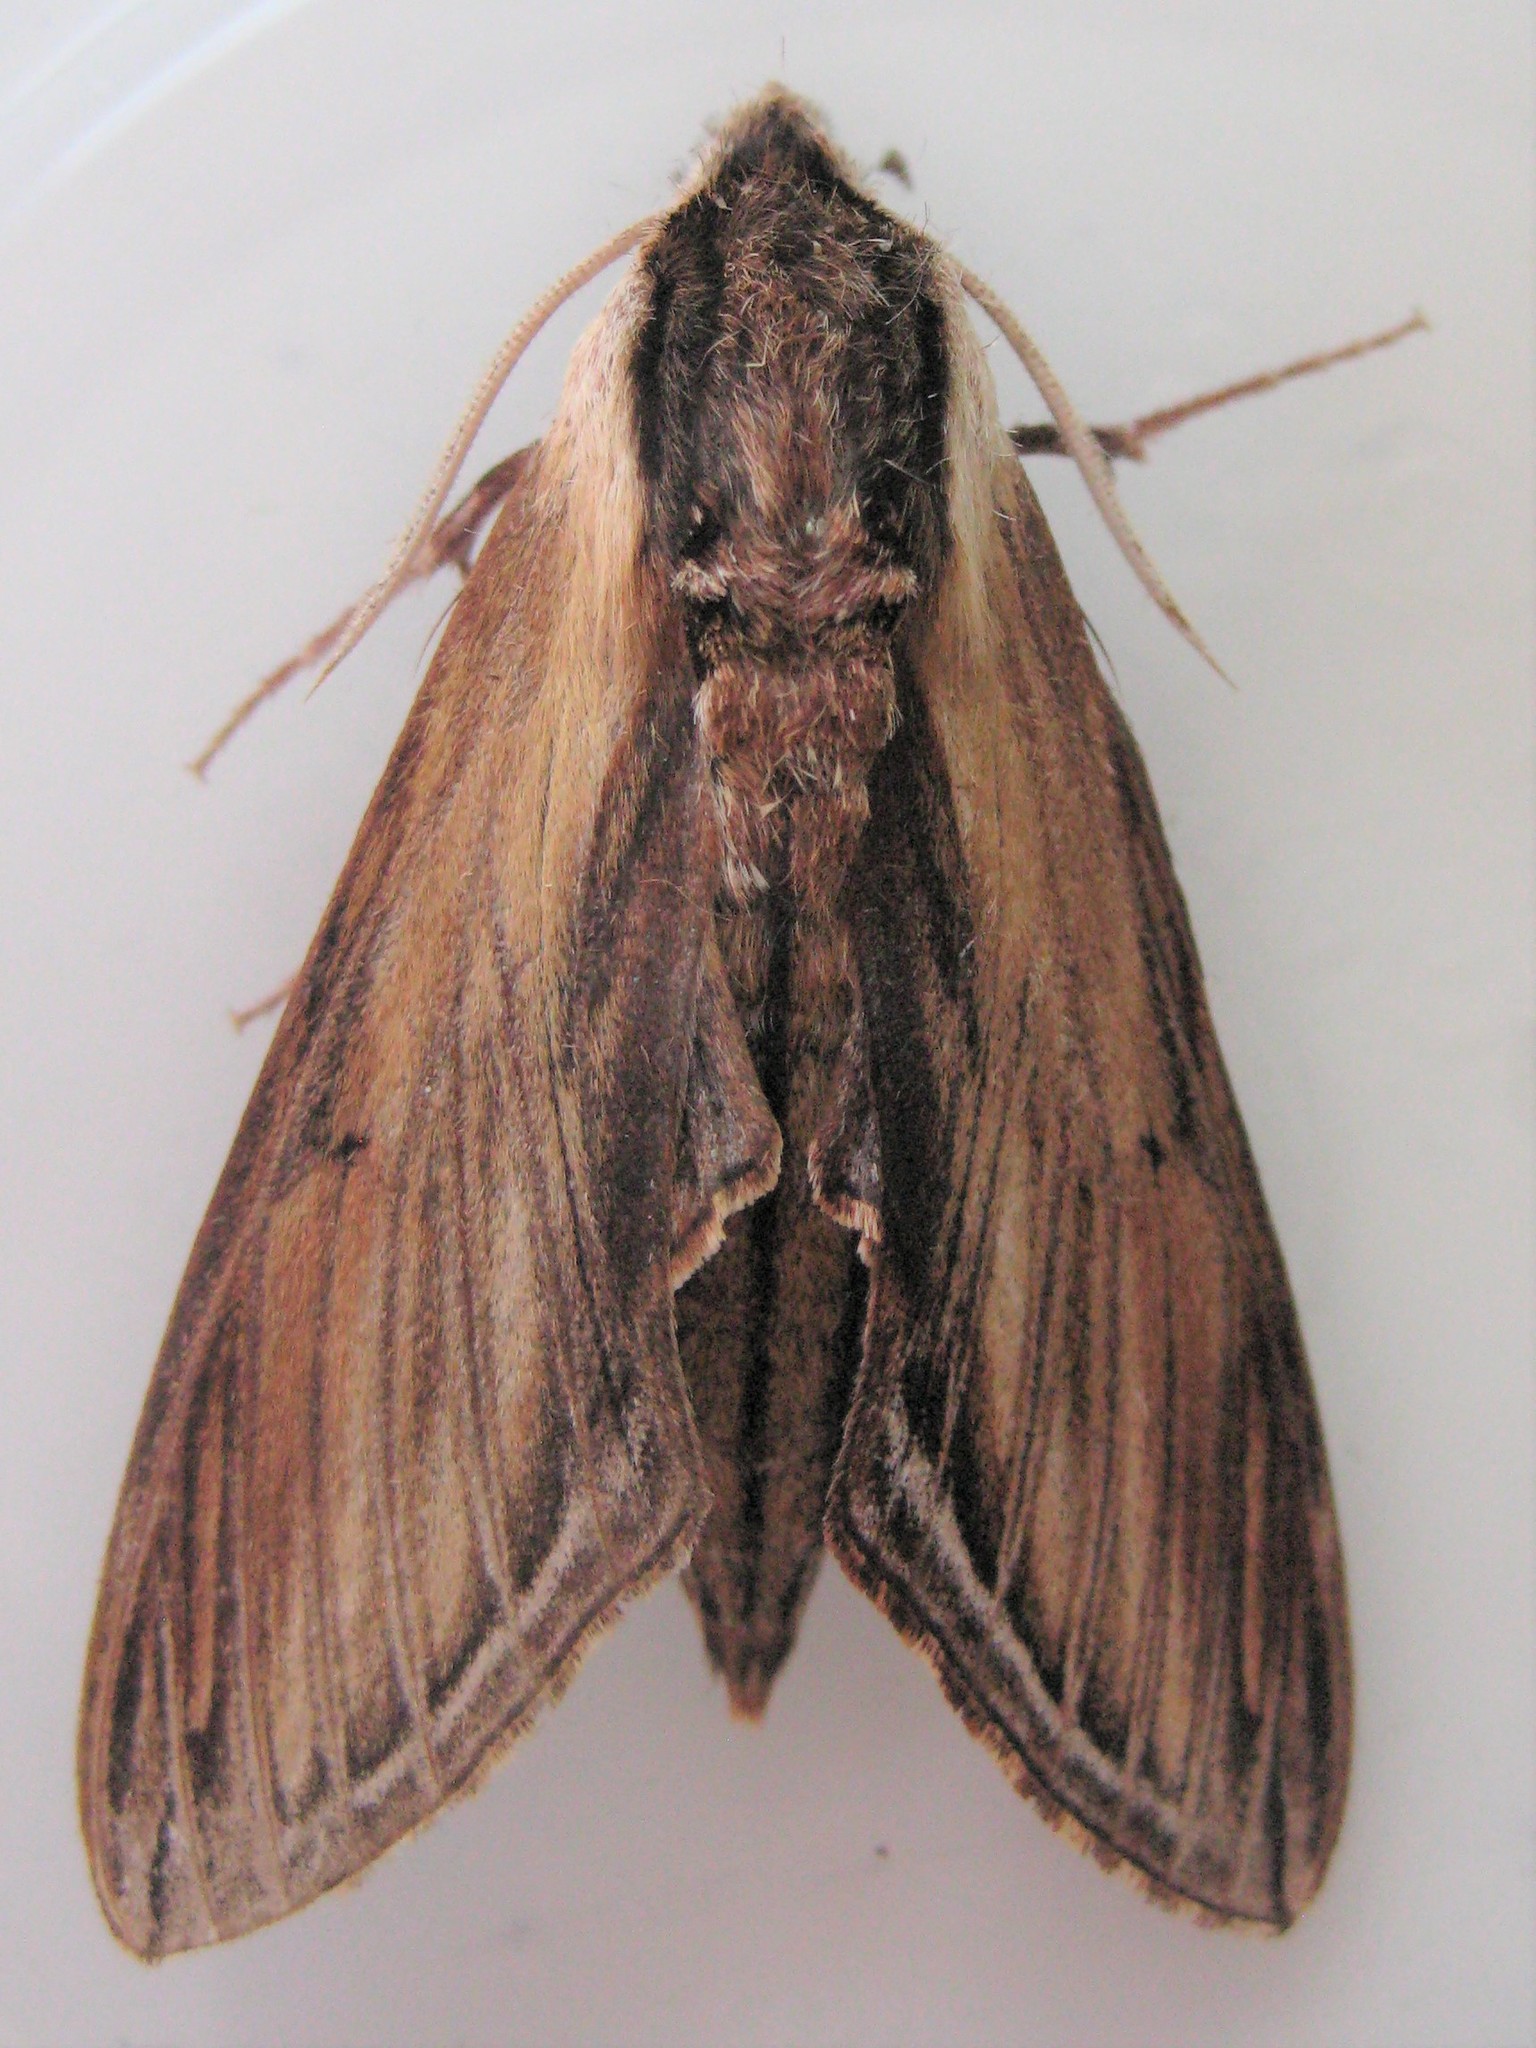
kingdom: Animalia
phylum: Arthropoda
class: Insecta
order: Lepidoptera
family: Sphingidae
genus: Sphinx
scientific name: Sphinx kalmiae
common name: Laurel sphinx
